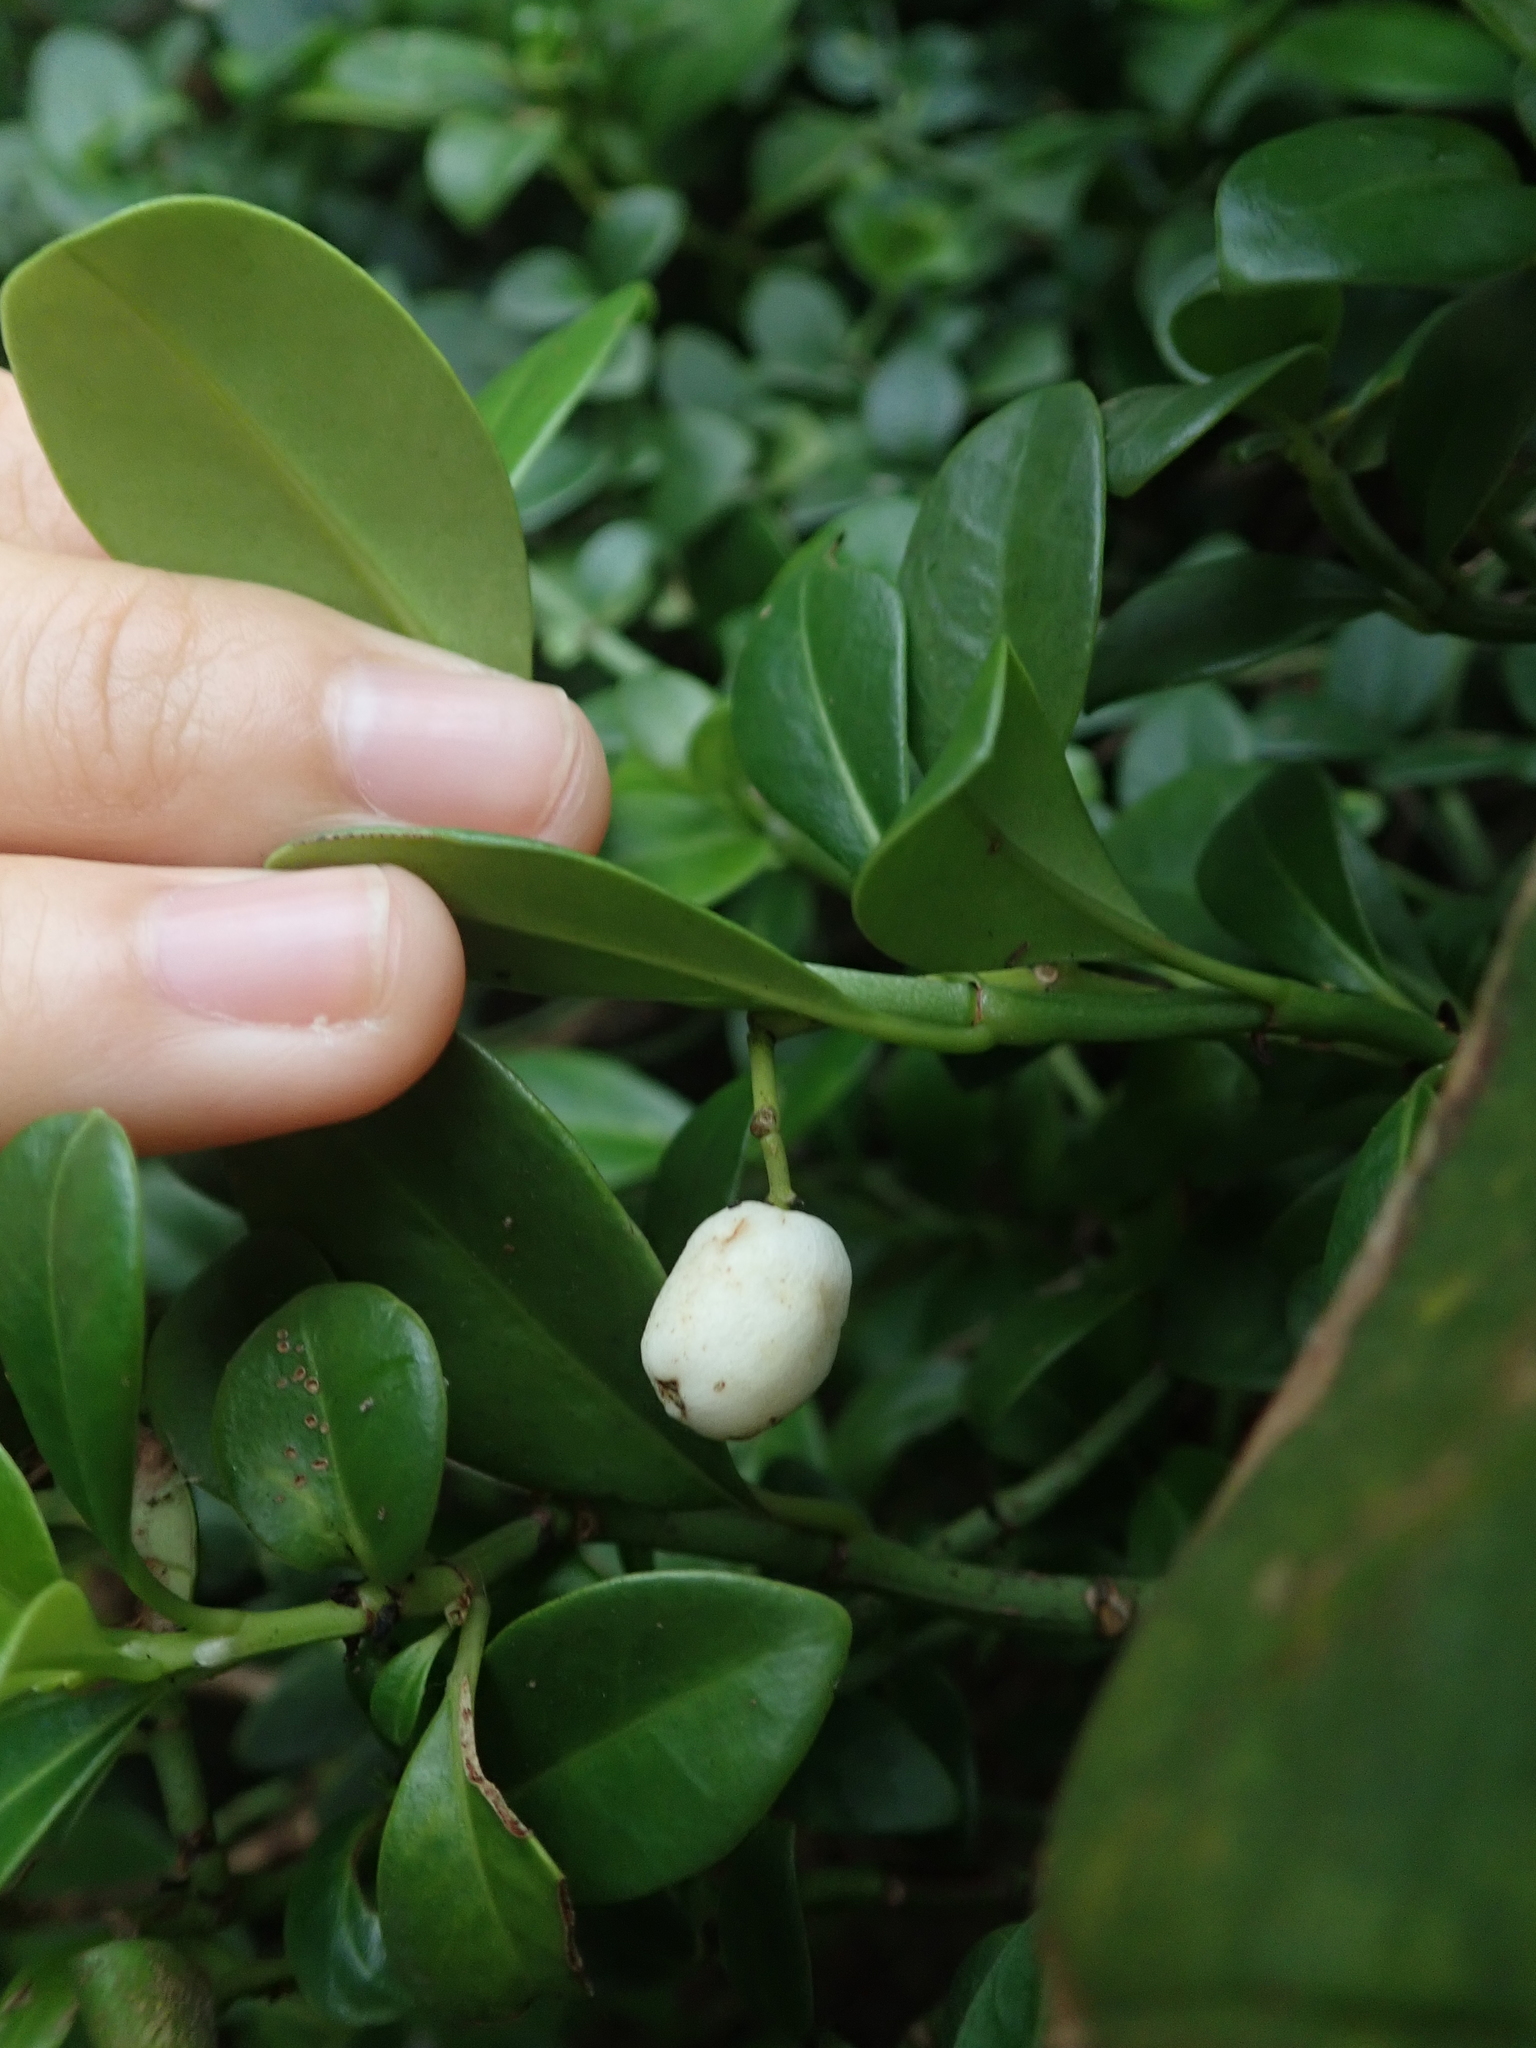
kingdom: Plantae
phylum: Tracheophyta
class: Magnoliopsida
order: Gentianales
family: Rubiaceae
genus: Psychotria
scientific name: Psychotria serpens
